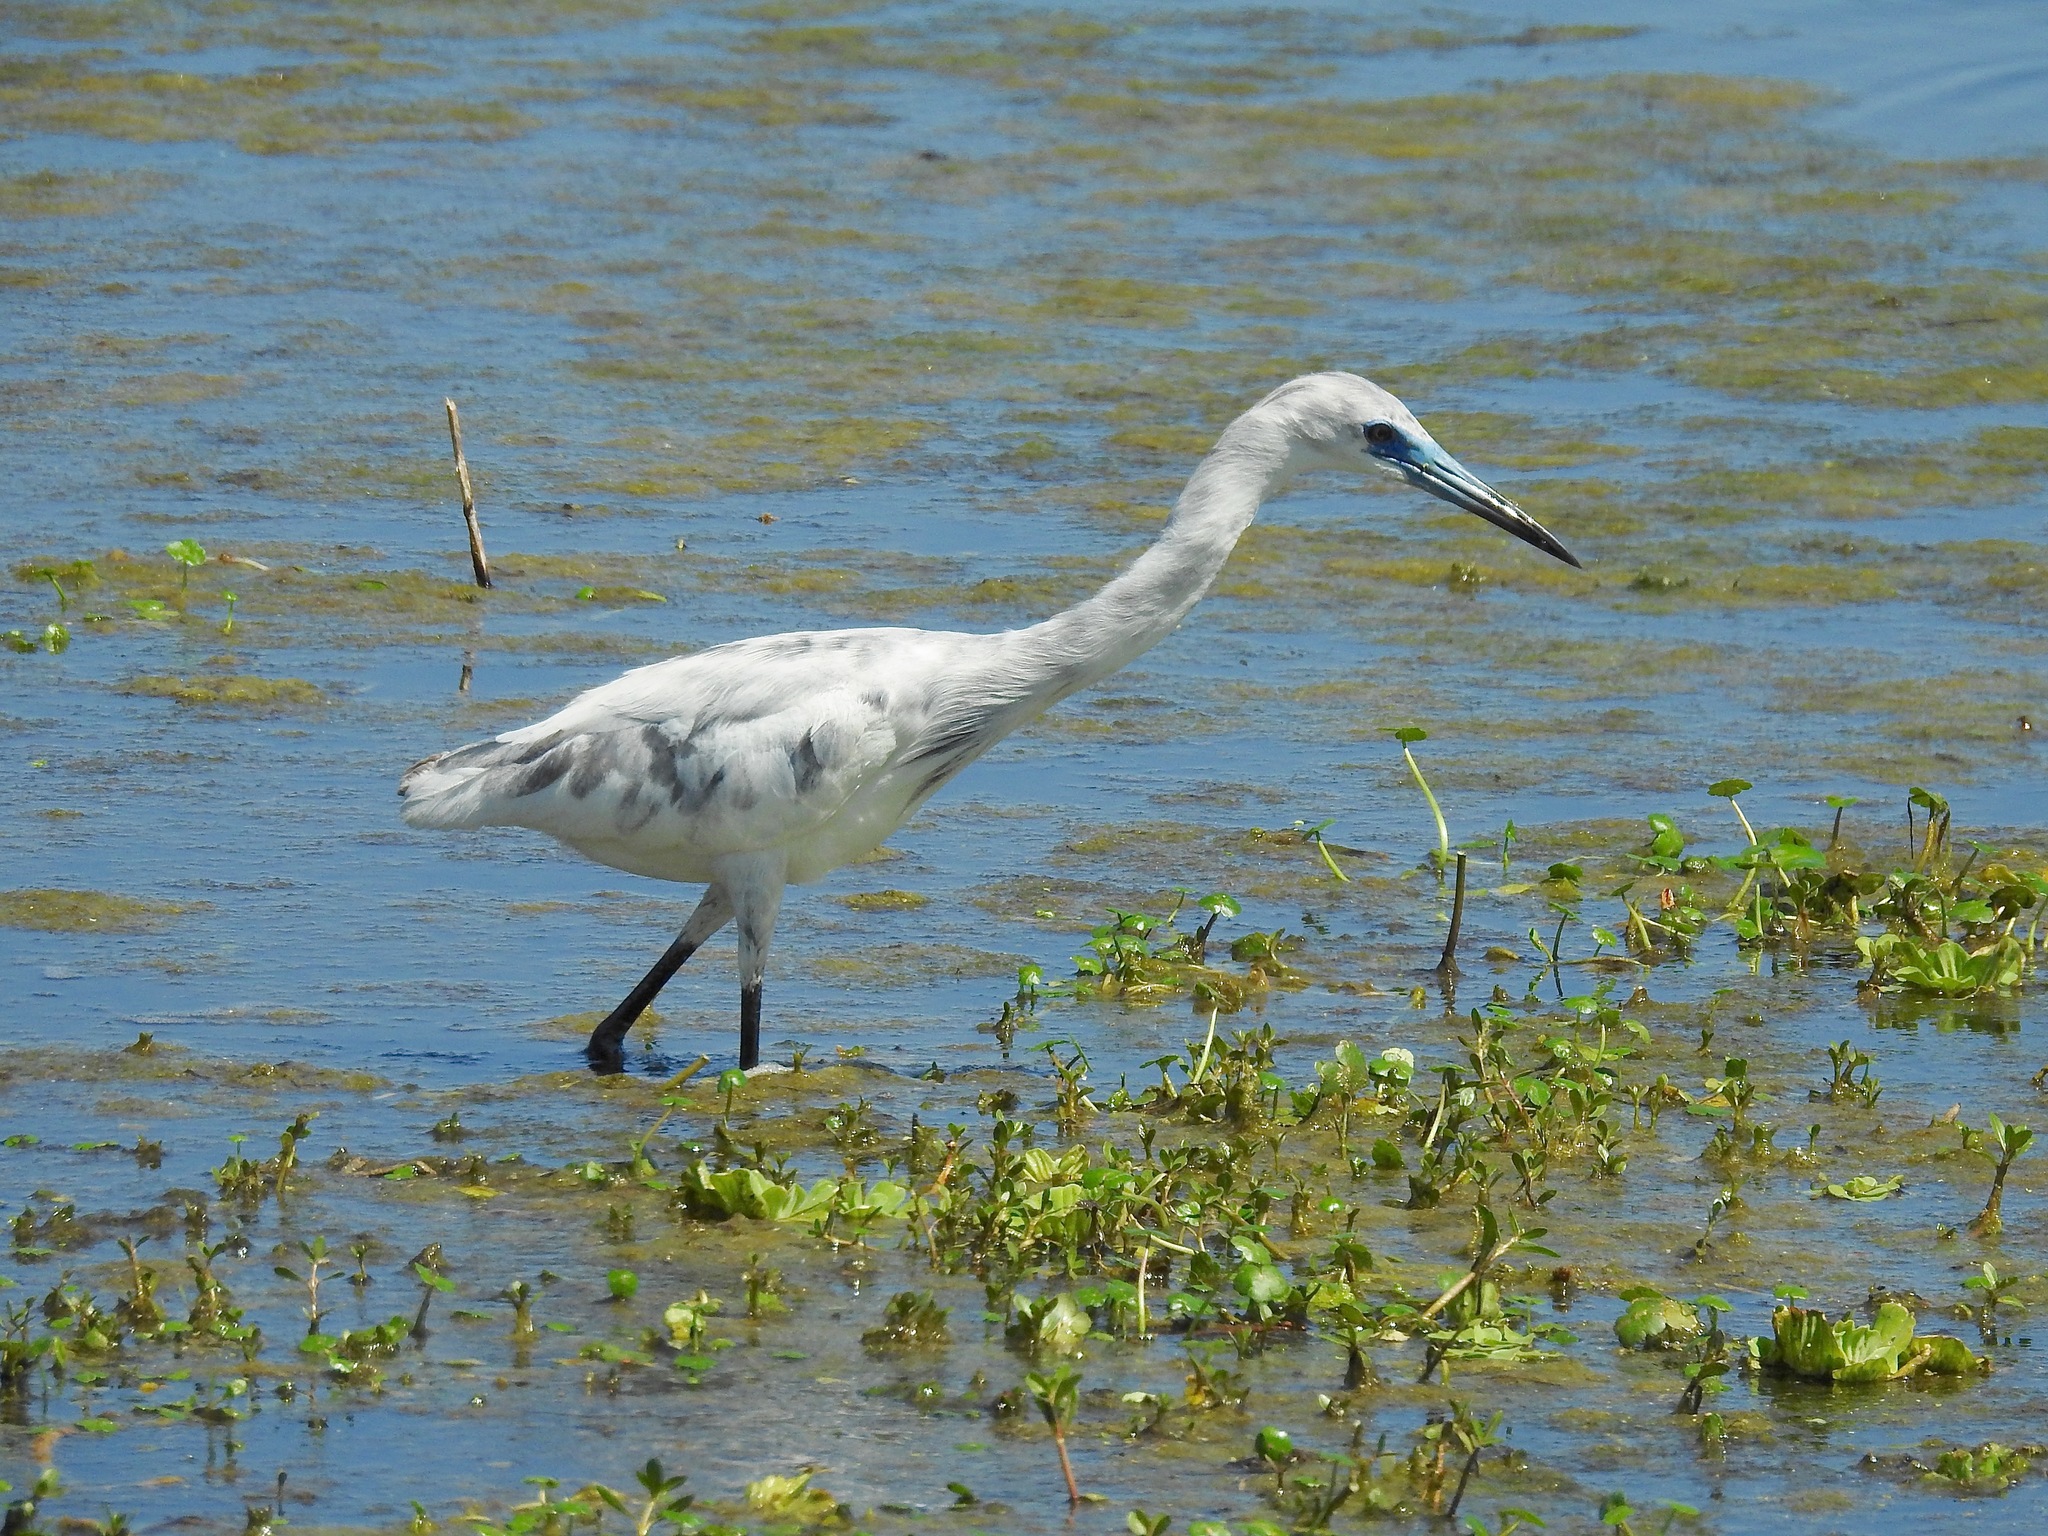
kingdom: Animalia
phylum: Chordata
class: Aves
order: Pelecaniformes
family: Ardeidae
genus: Egretta
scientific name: Egretta caerulea
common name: Little blue heron
